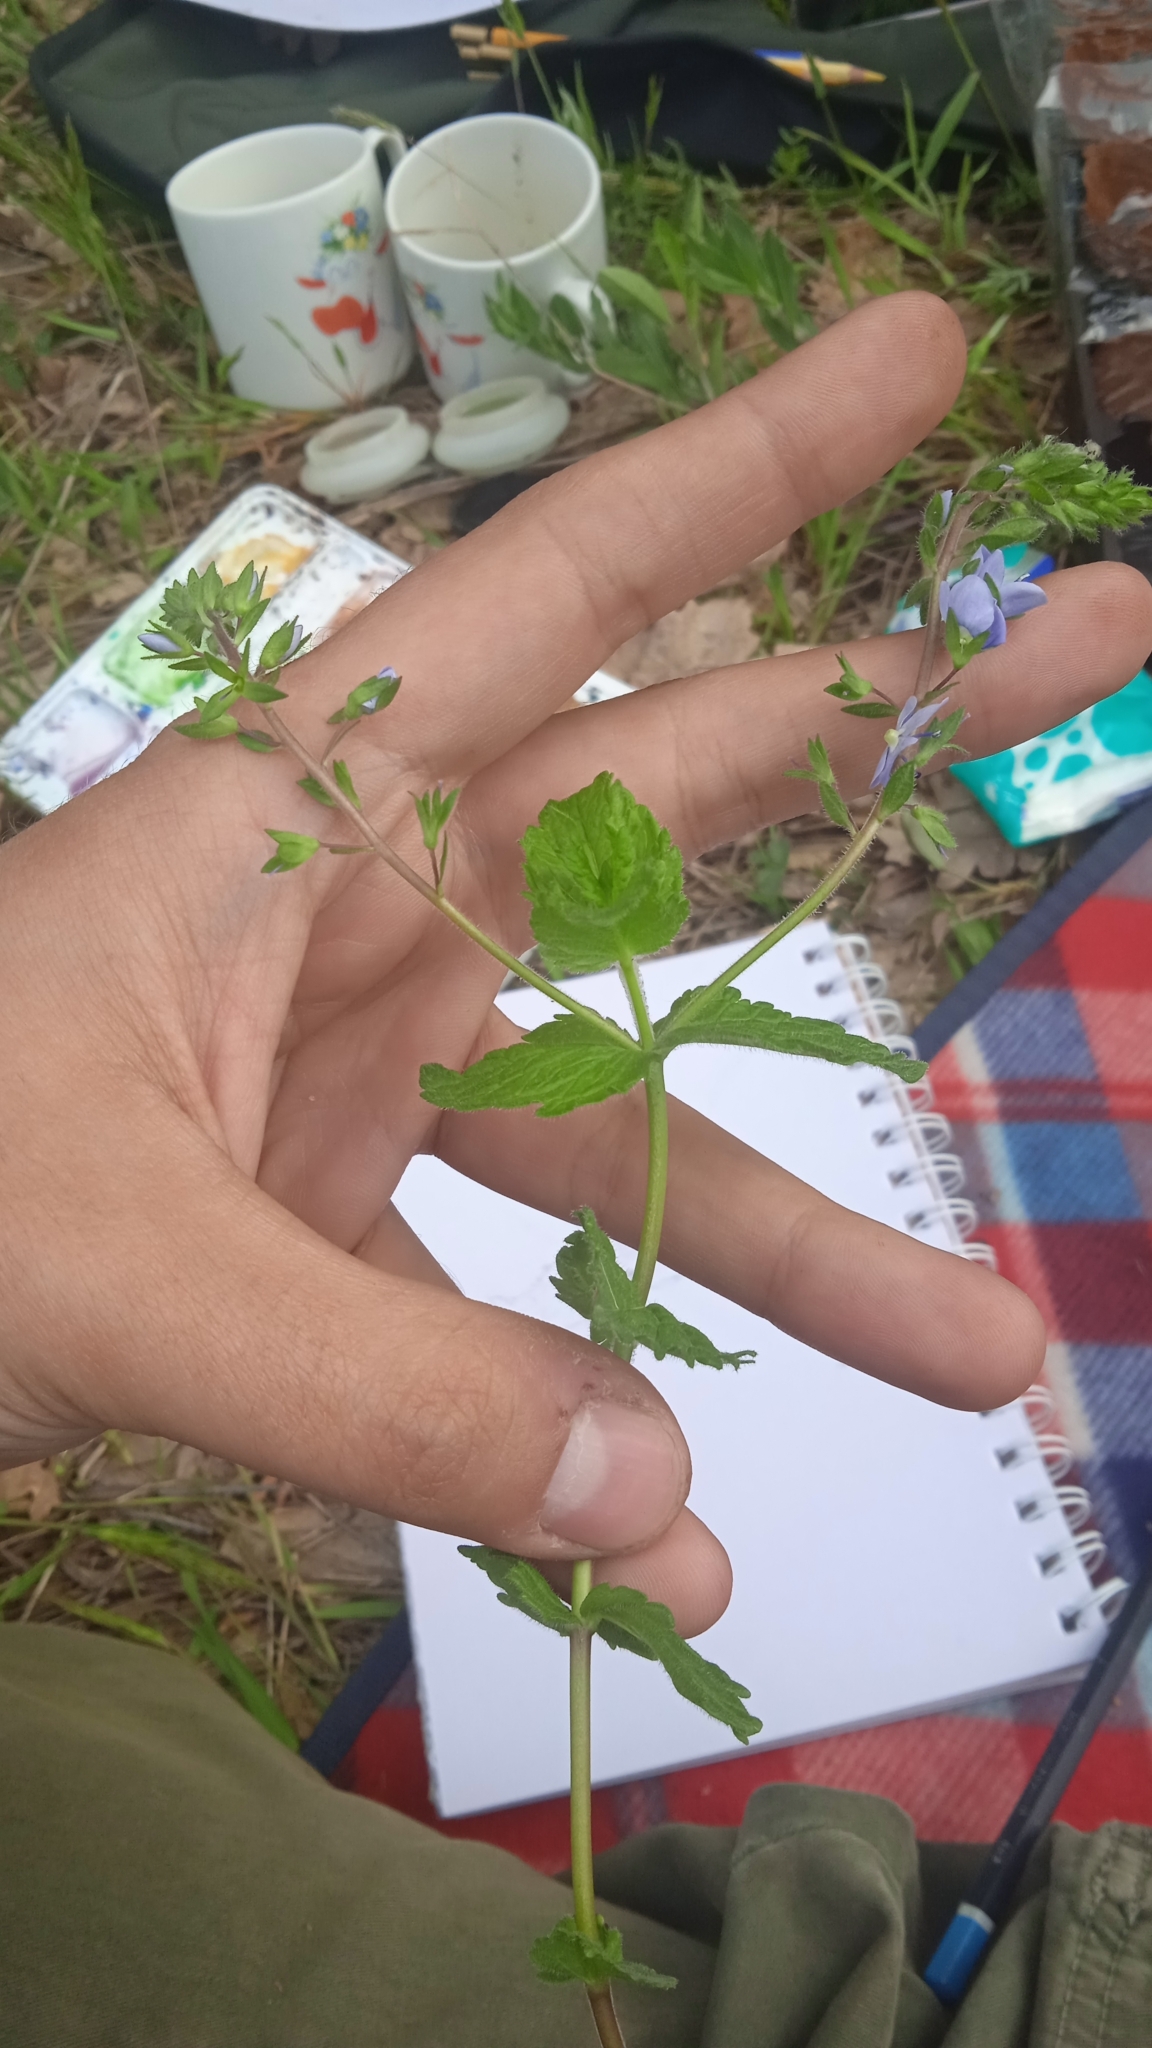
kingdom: Plantae
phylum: Tracheophyta
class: Magnoliopsida
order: Lamiales
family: Plantaginaceae
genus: Veronica
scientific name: Veronica chamaedrys
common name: Germander speedwell
